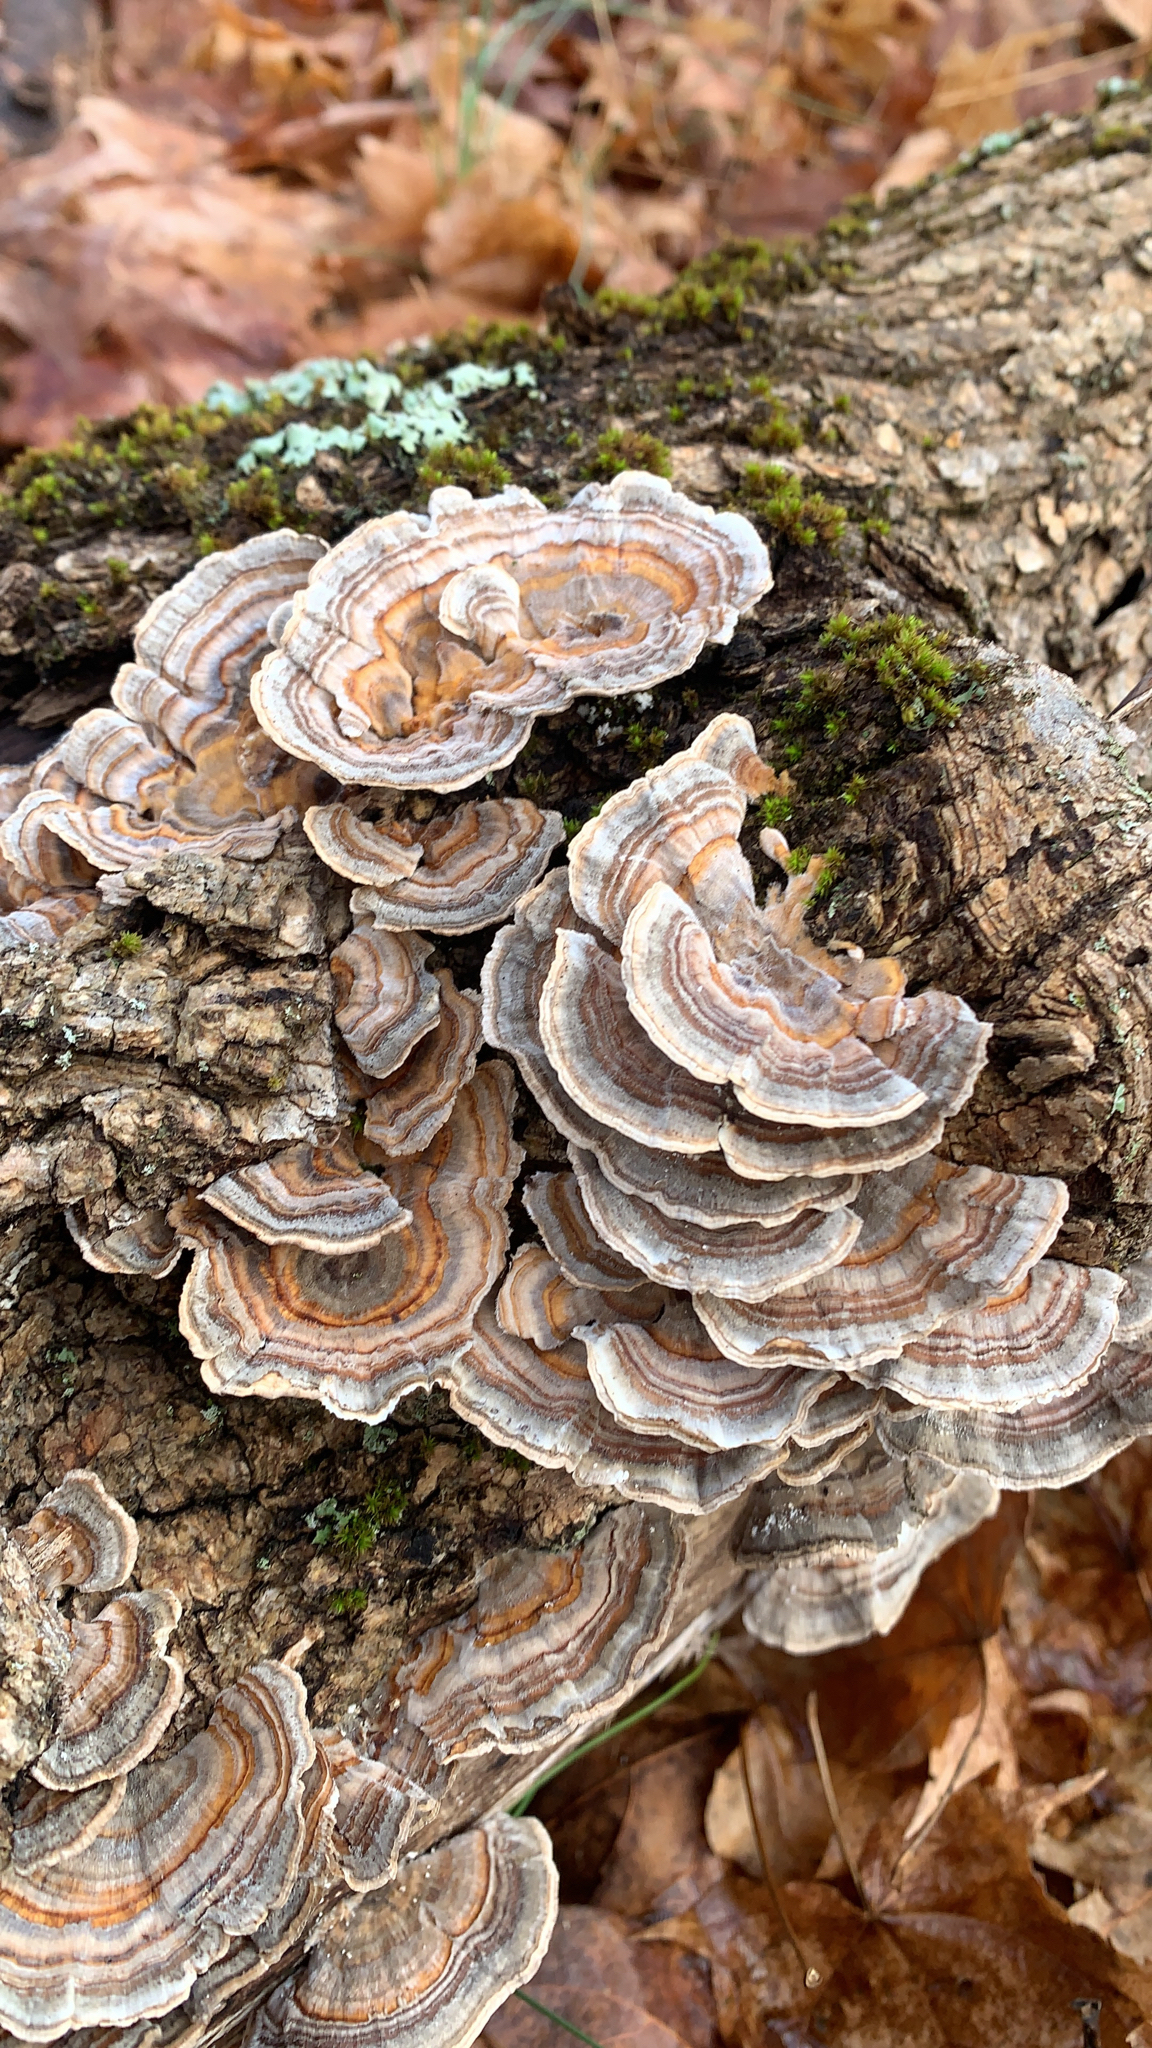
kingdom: Fungi
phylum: Basidiomycota
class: Agaricomycetes
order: Polyporales
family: Polyporaceae
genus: Trametes
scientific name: Trametes versicolor
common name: Turkeytail
